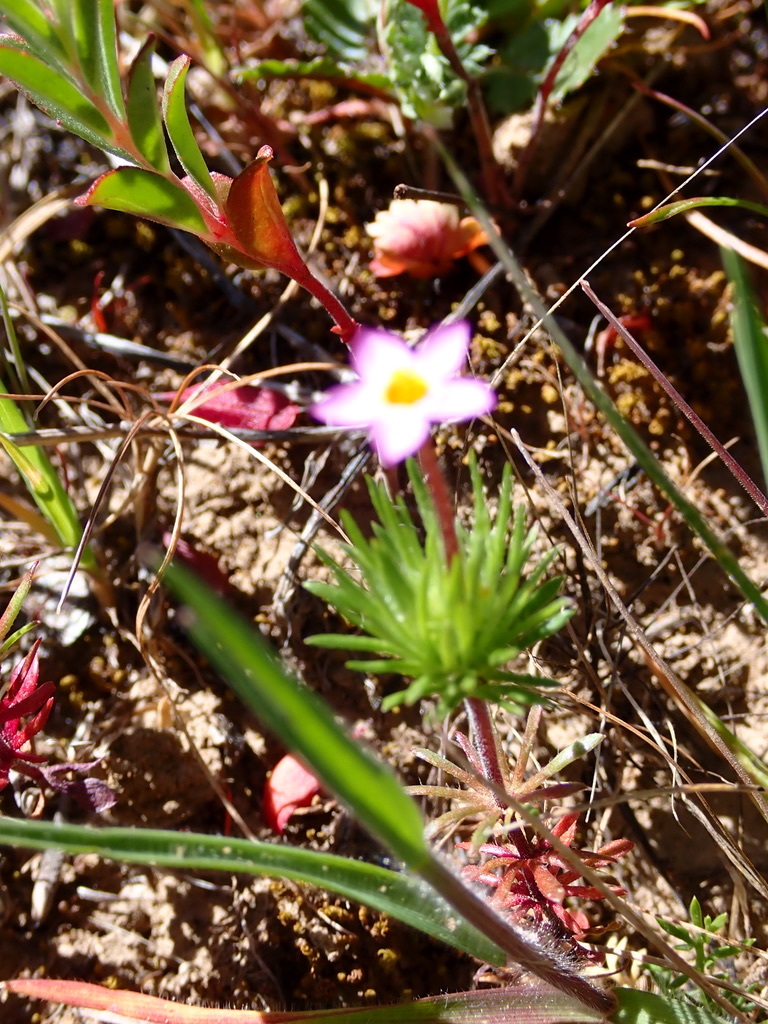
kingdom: Plantae
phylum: Tracheophyta
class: Magnoliopsida
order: Ericales
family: Polemoniaceae
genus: Leptosiphon
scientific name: Leptosiphon bicolor
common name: True babystars
